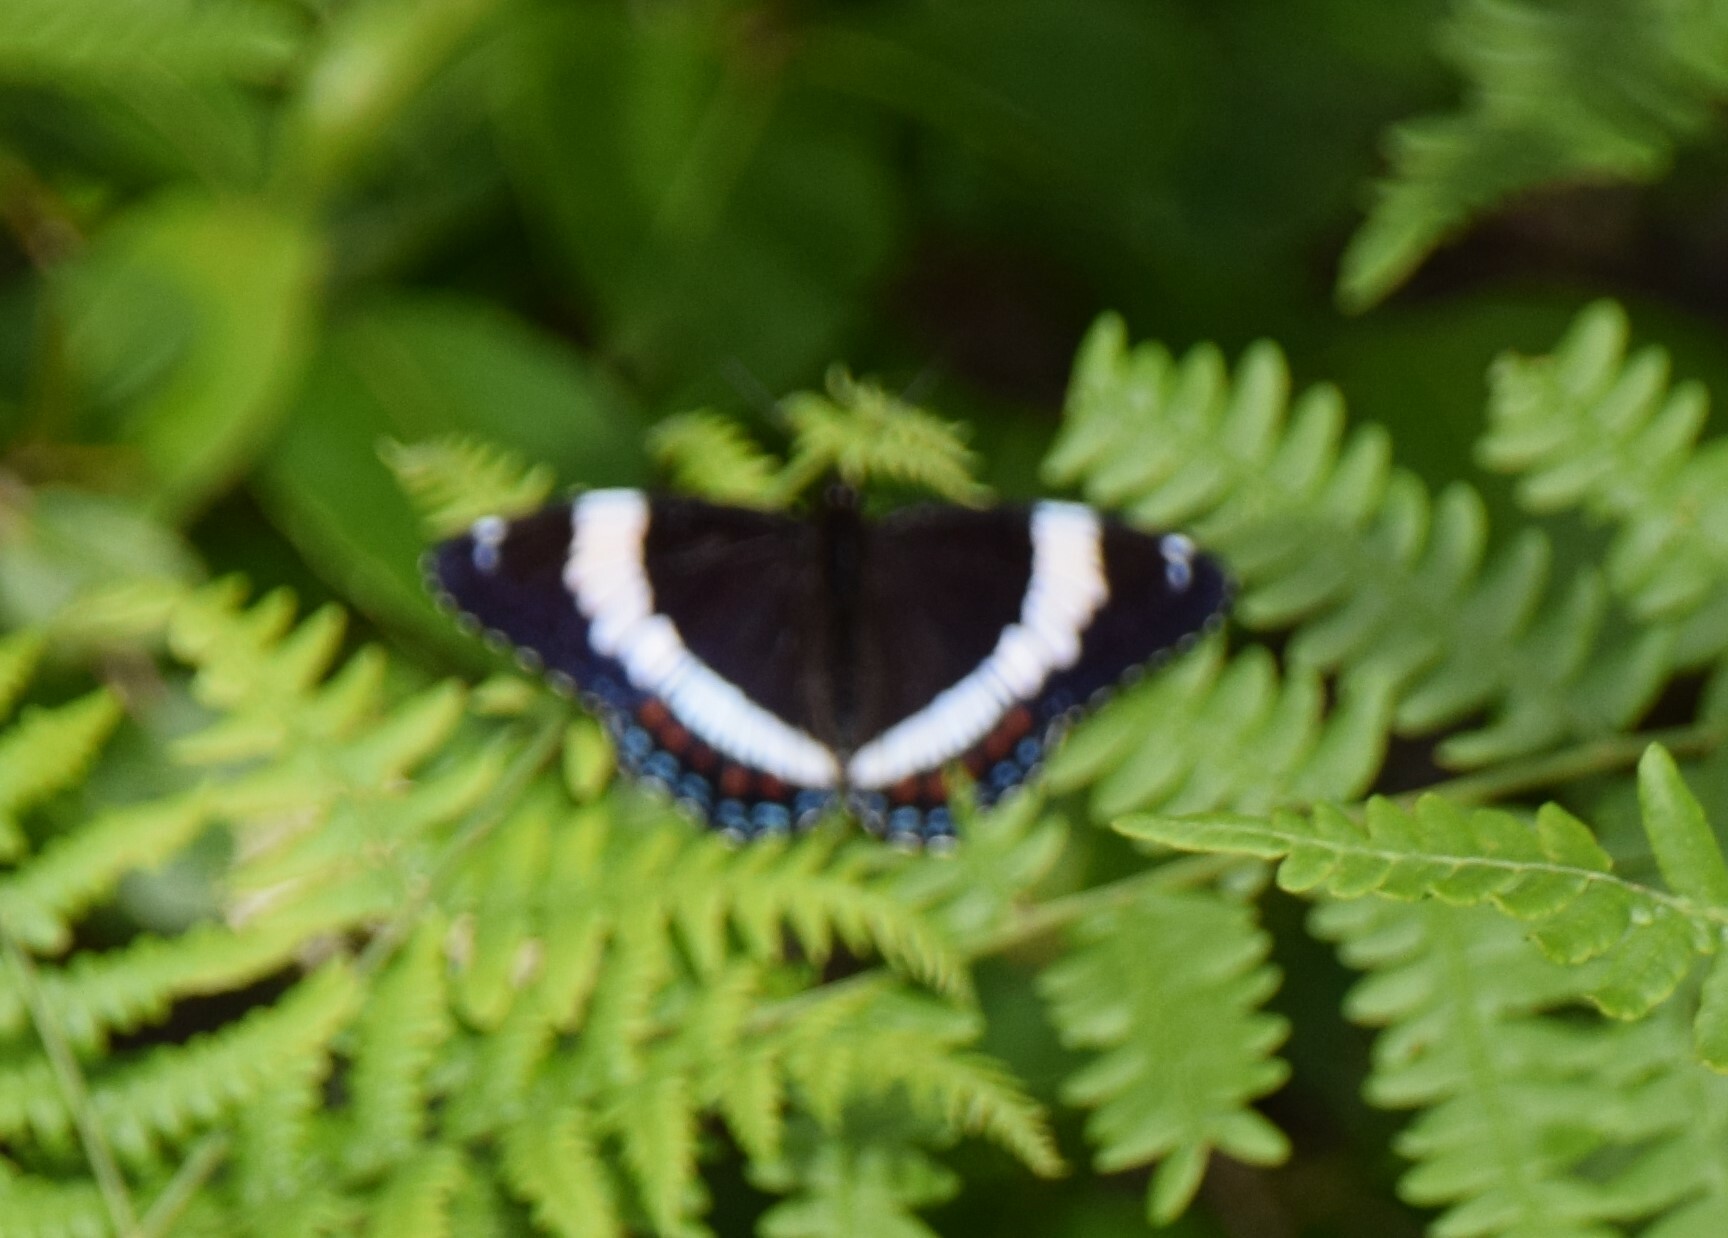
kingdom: Animalia
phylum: Arthropoda
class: Insecta
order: Lepidoptera
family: Nymphalidae
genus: Limenitis
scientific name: Limenitis arthemis
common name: Red-spotted admiral
